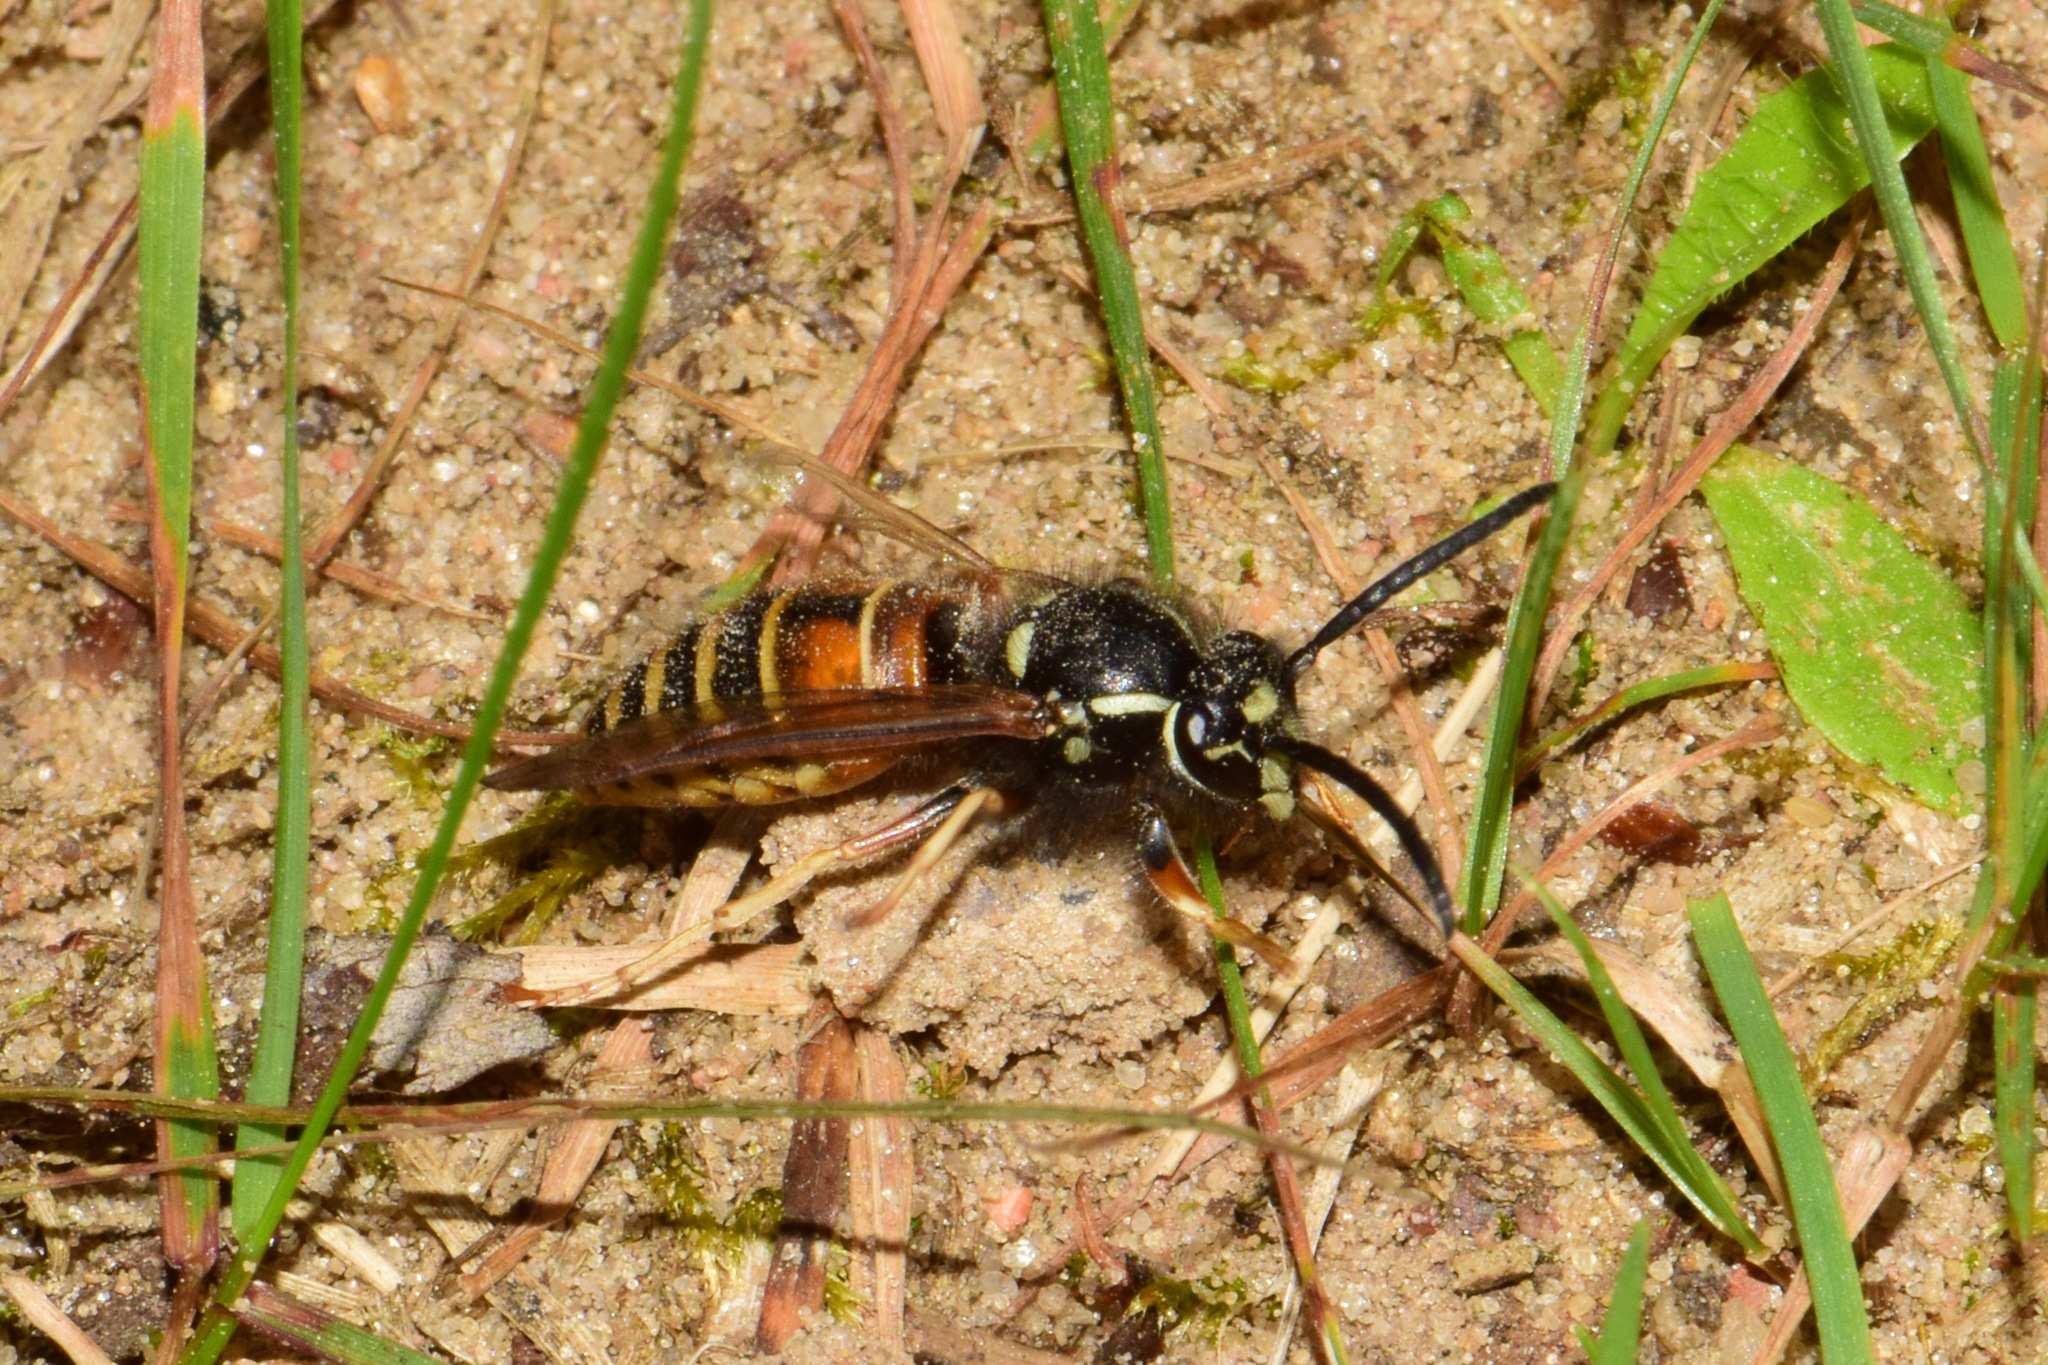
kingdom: Animalia
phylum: Arthropoda
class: Insecta
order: Hymenoptera
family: Vespidae
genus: Vespula
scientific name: Vespula rufa
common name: Red wasp
